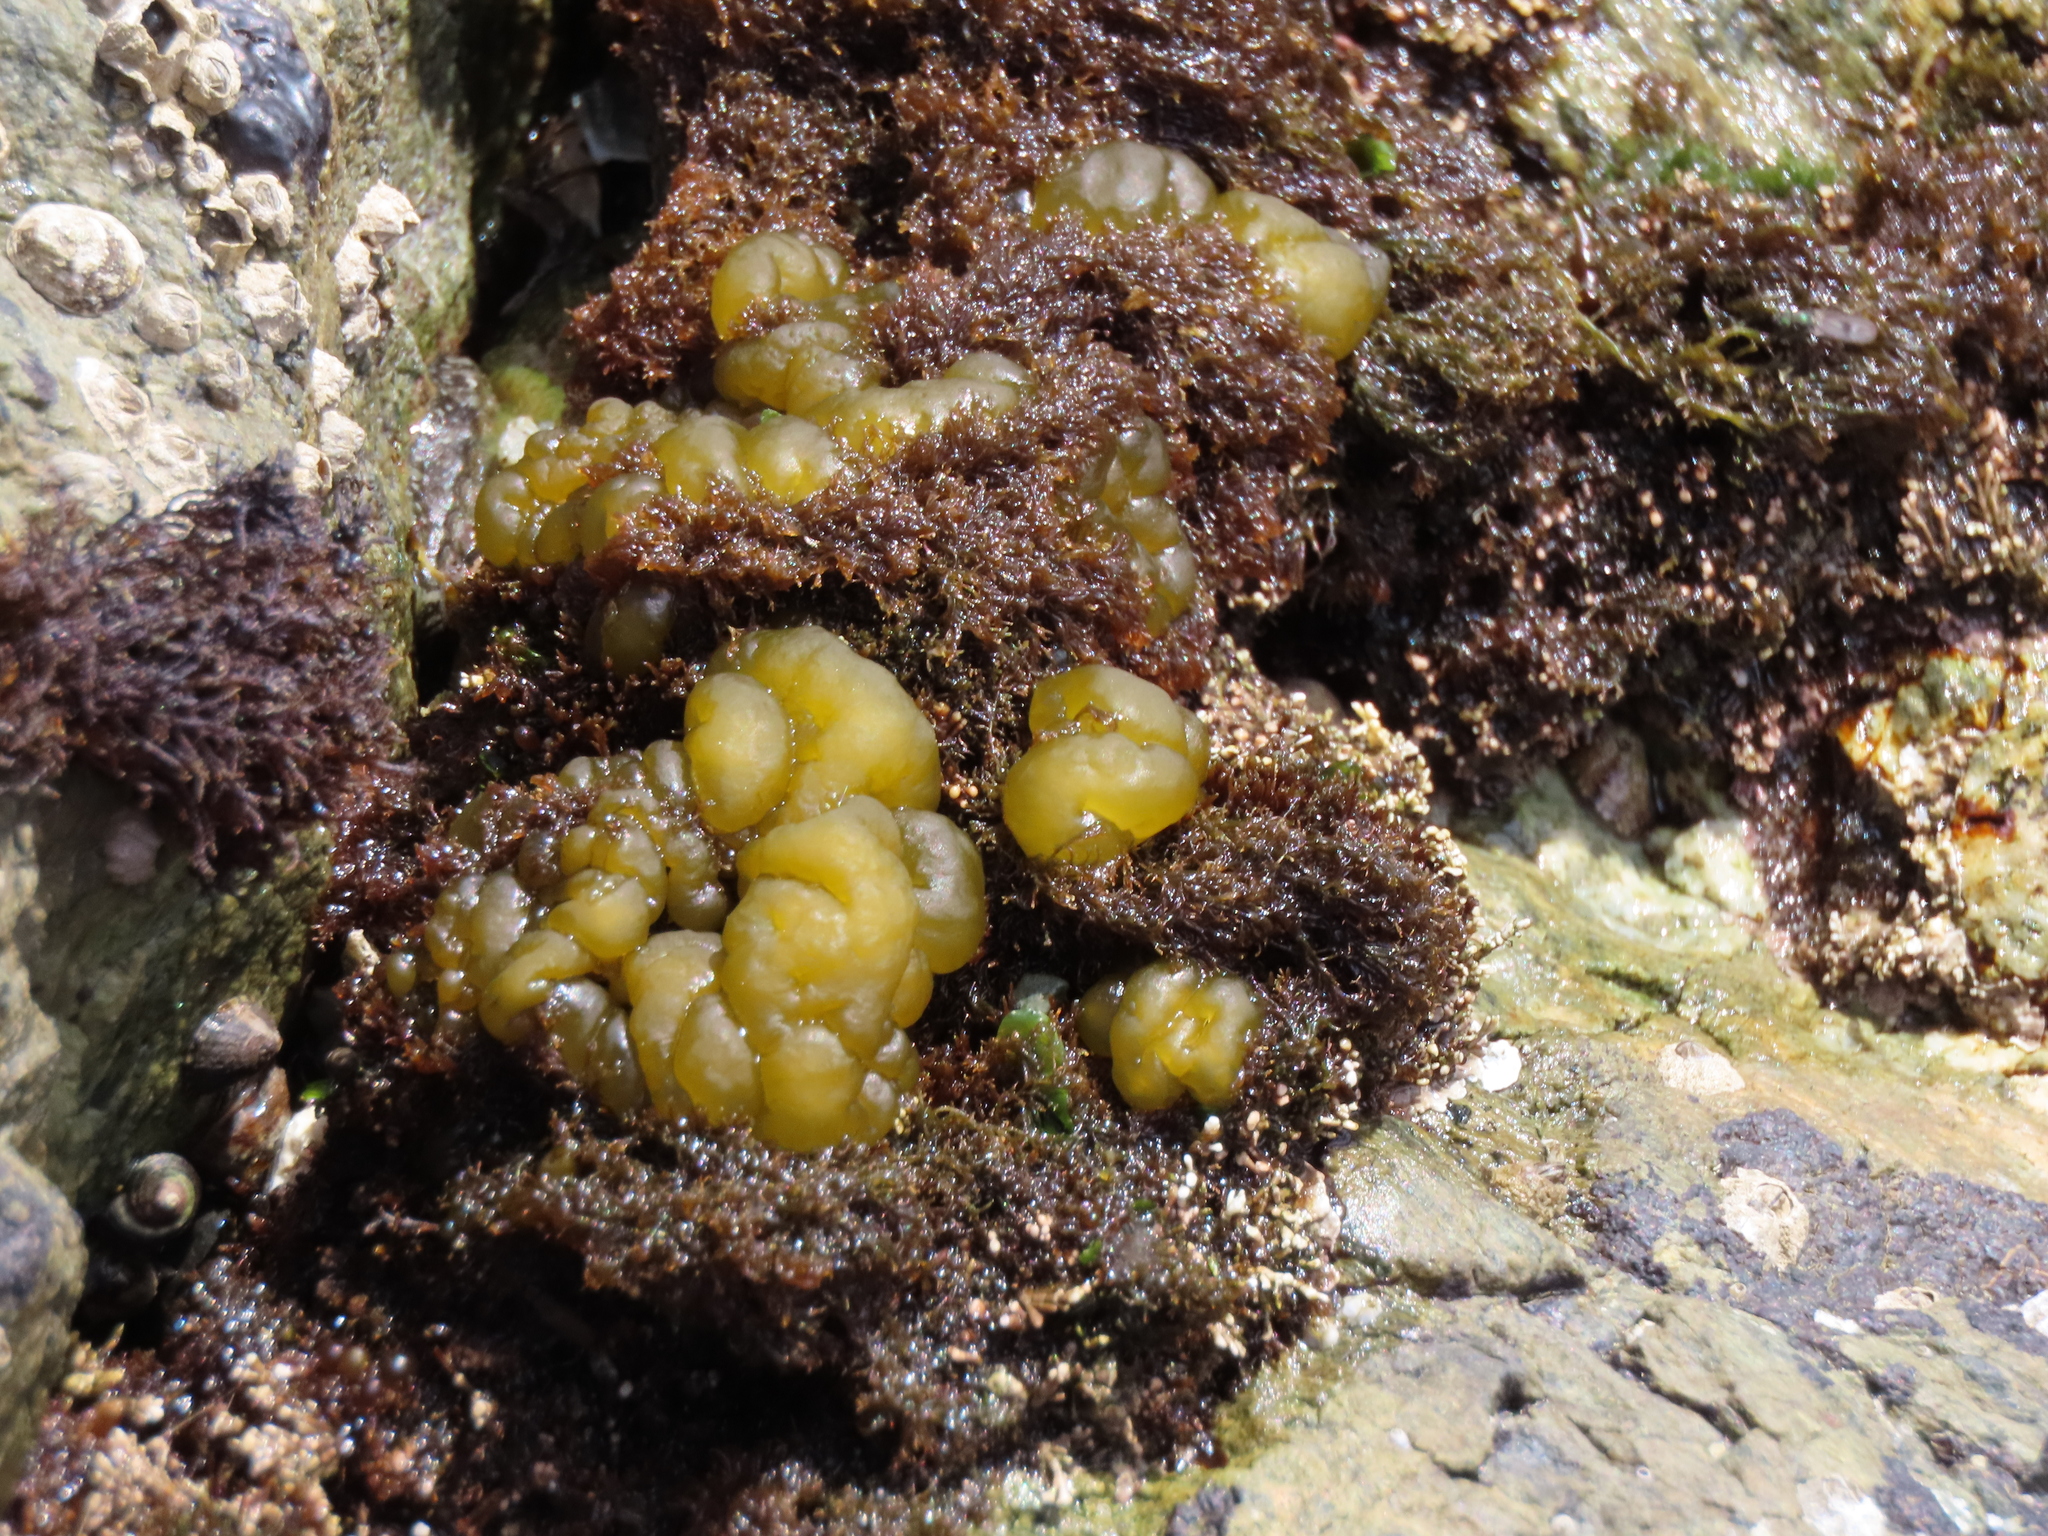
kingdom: Chromista
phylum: Ochrophyta
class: Phaeophyceae
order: Ectocarpales
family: Chordariaceae
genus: Leathesia
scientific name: Leathesia marina
